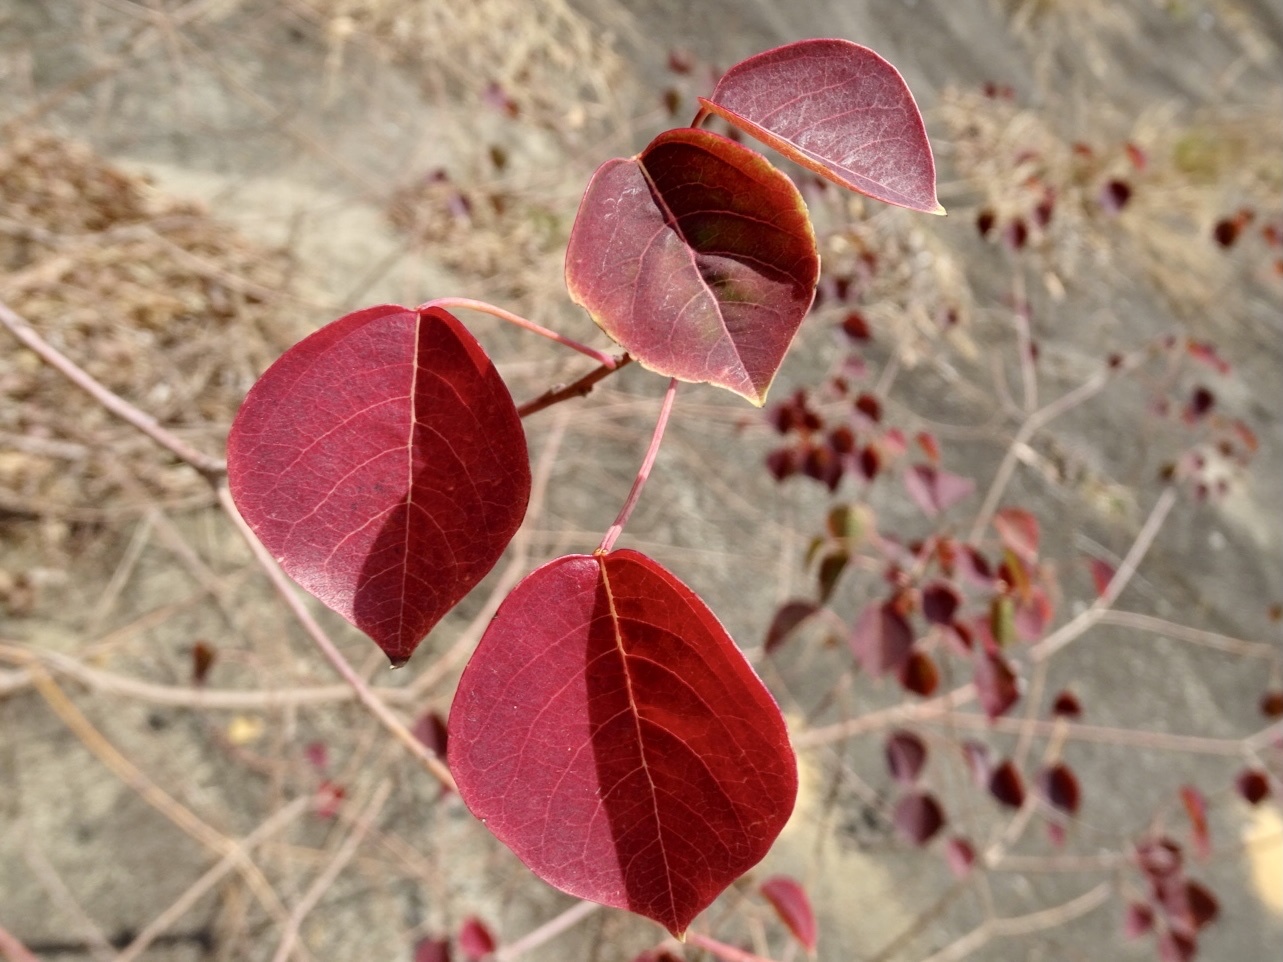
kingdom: Plantae
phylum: Tracheophyta
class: Magnoliopsida
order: Malpighiales
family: Euphorbiaceae
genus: Triadica
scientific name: Triadica sebifera
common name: Chinese tallow
